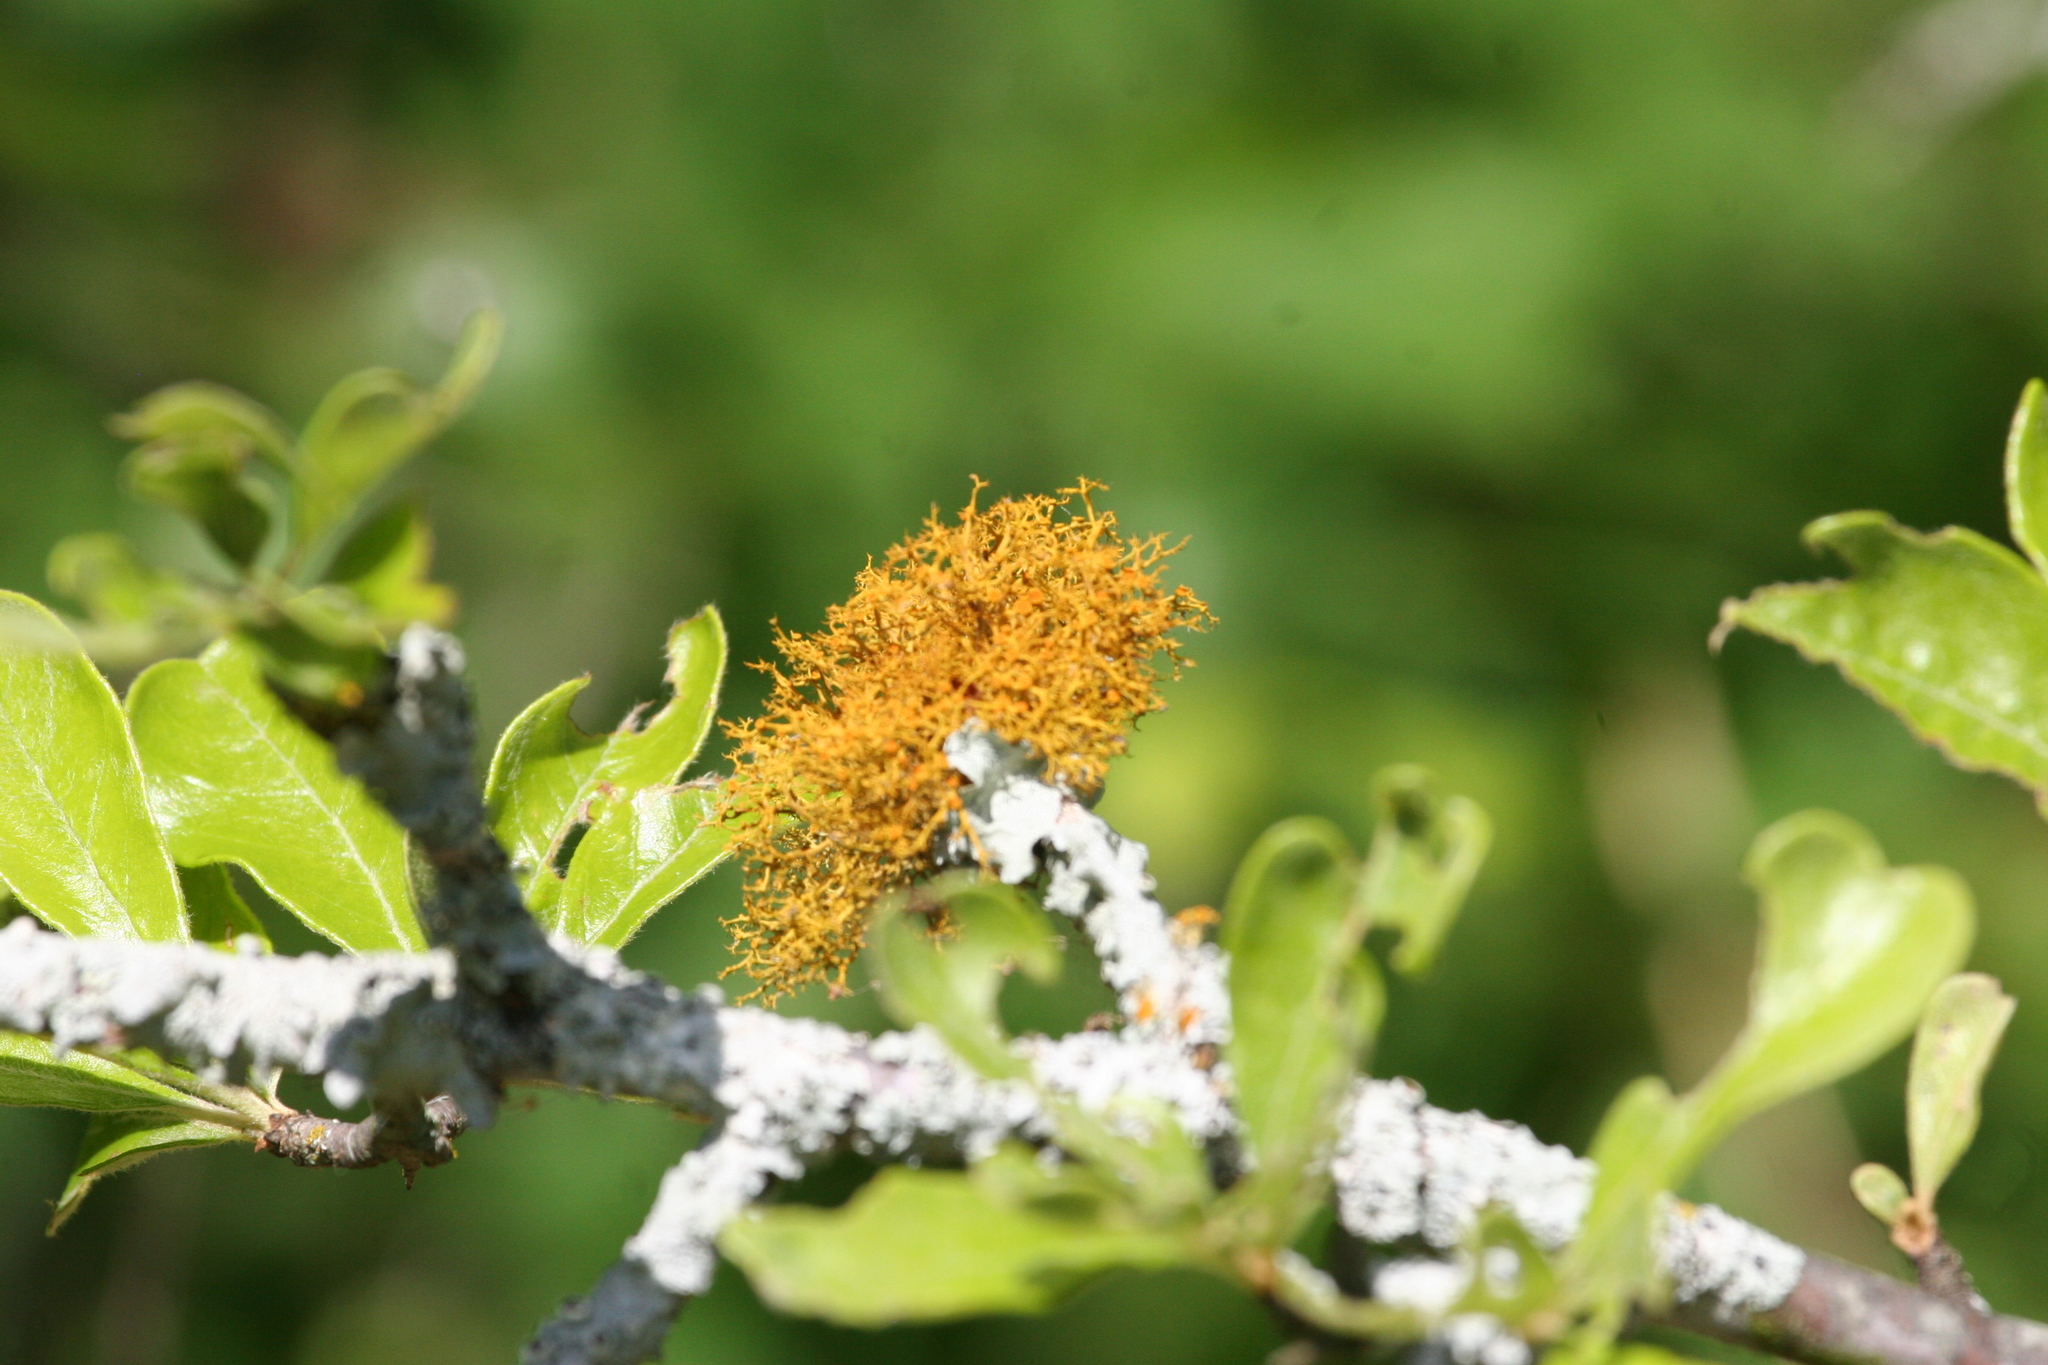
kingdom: Fungi
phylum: Ascomycota
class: Lecanoromycetes
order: Teloschistales
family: Teloschistaceae
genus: Teloschistes
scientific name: Teloschistes exilis
